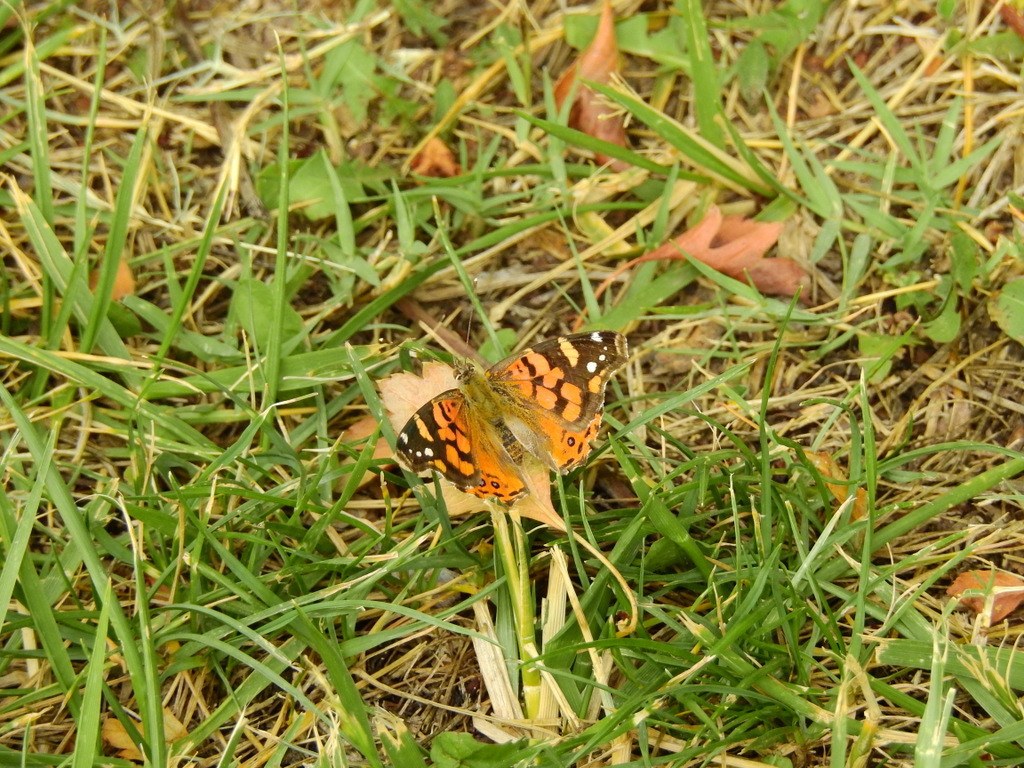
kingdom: Animalia
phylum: Arthropoda
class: Insecta
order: Lepidoptera
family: Nymphalidae
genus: Vanessa
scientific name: Vanessa carye
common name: Subtropical lady
